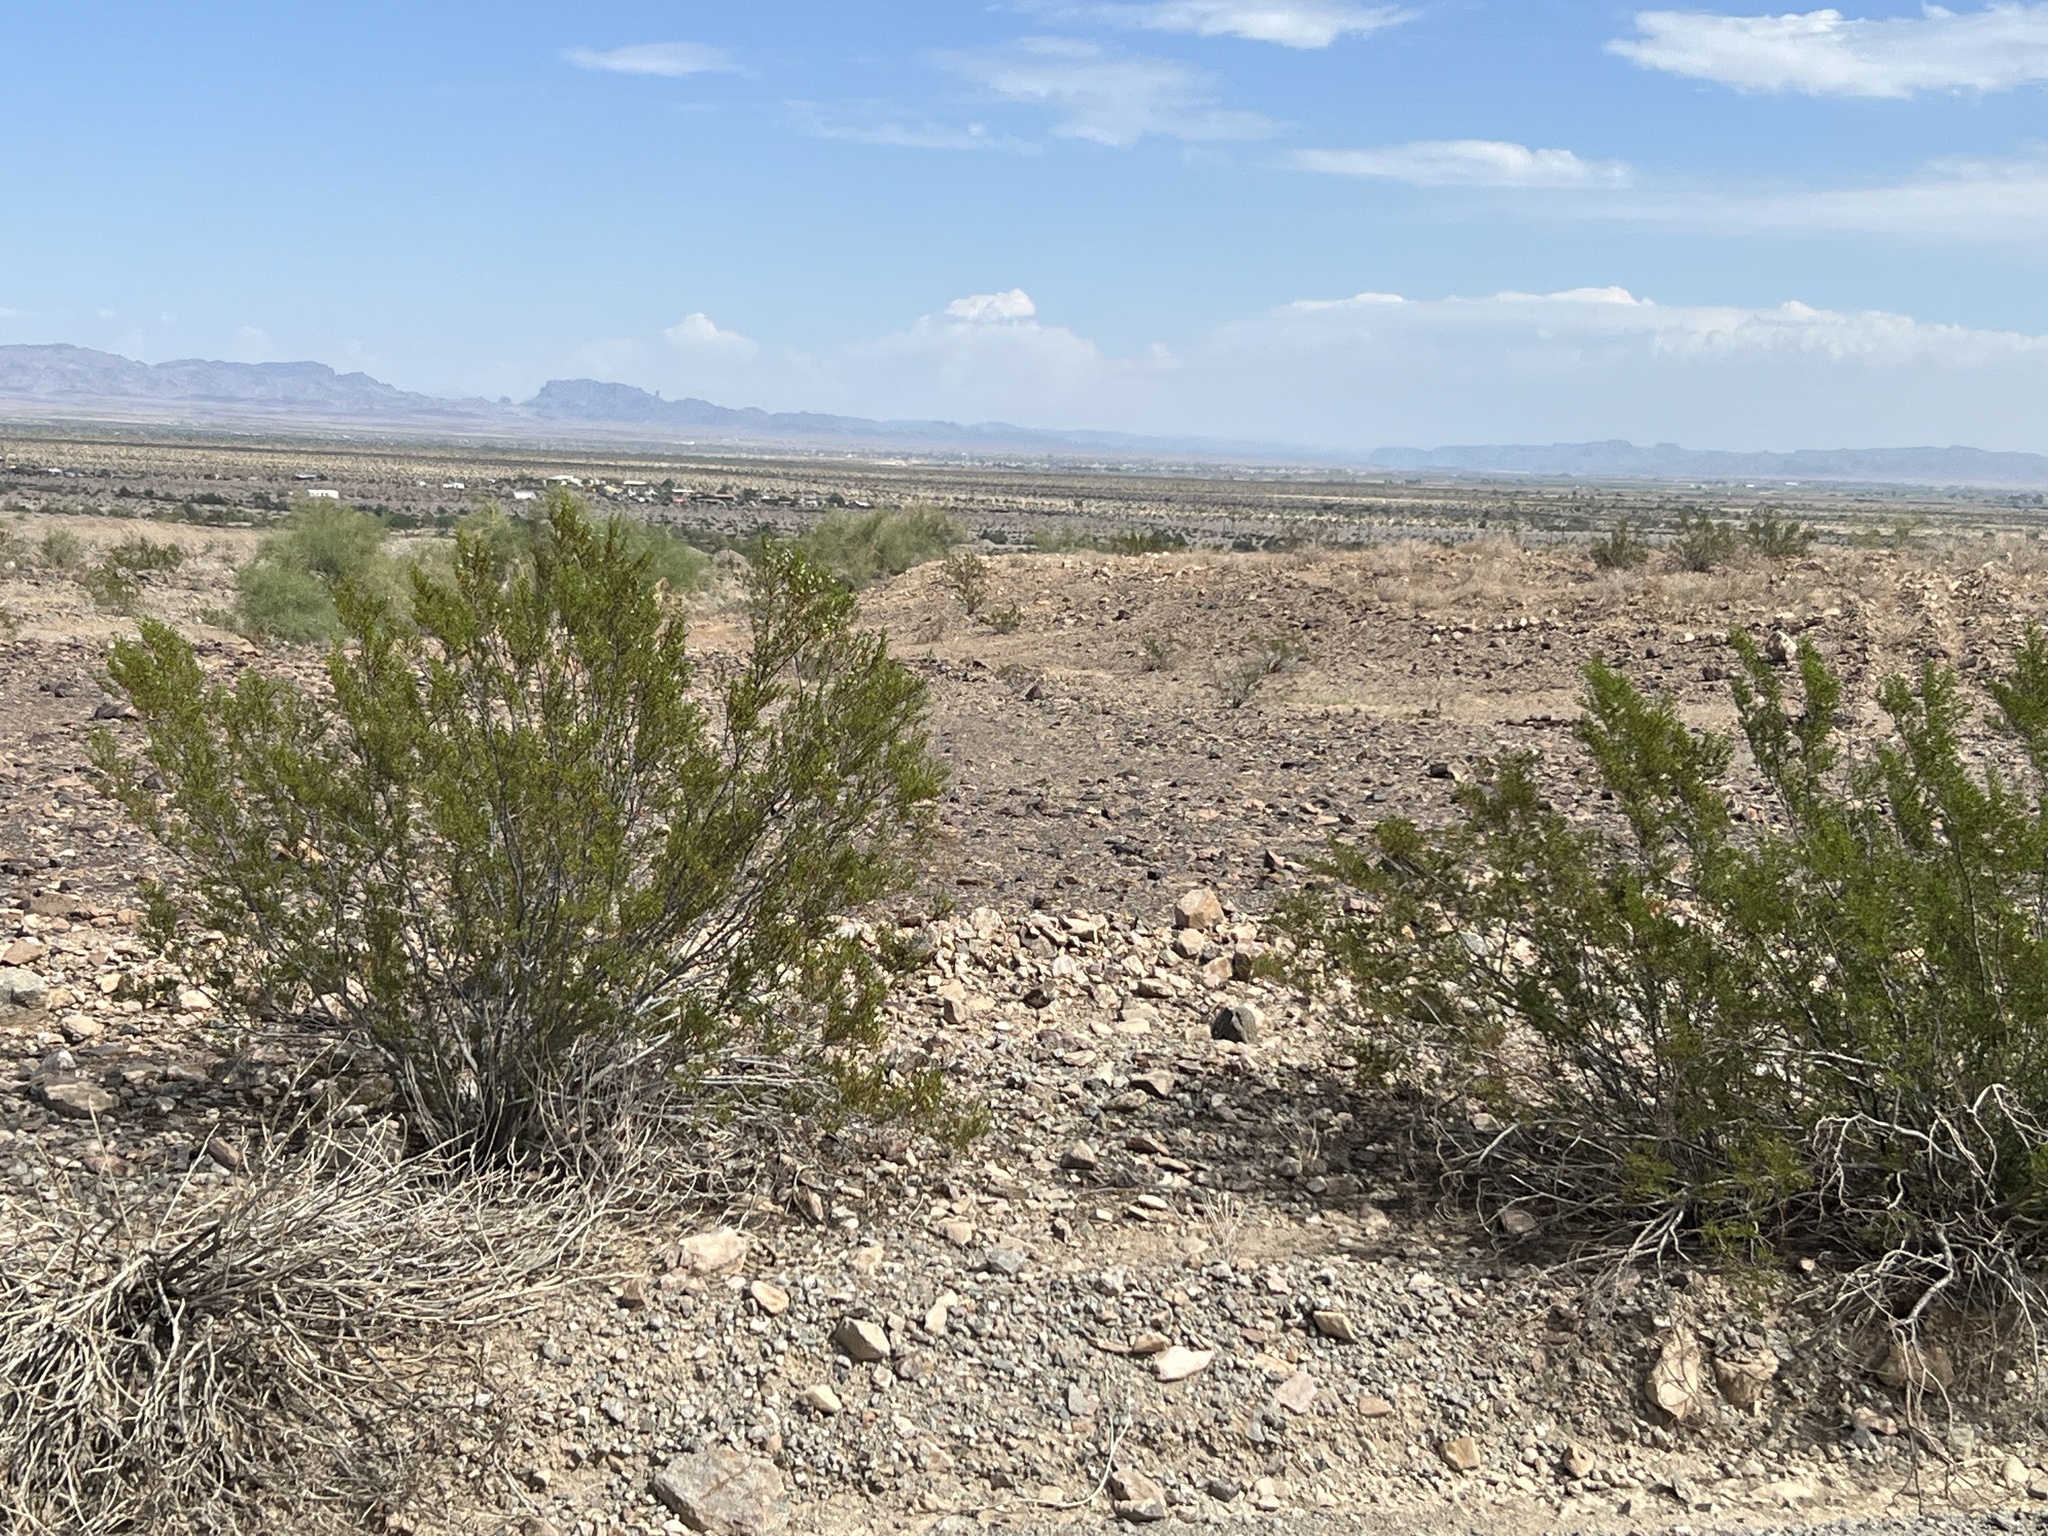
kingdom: Plantae
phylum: Tracheophyta
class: Magnoliopsida
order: Zygophyllales
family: Zygophyllaceae
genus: Larrea
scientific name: Larrea tridentata
